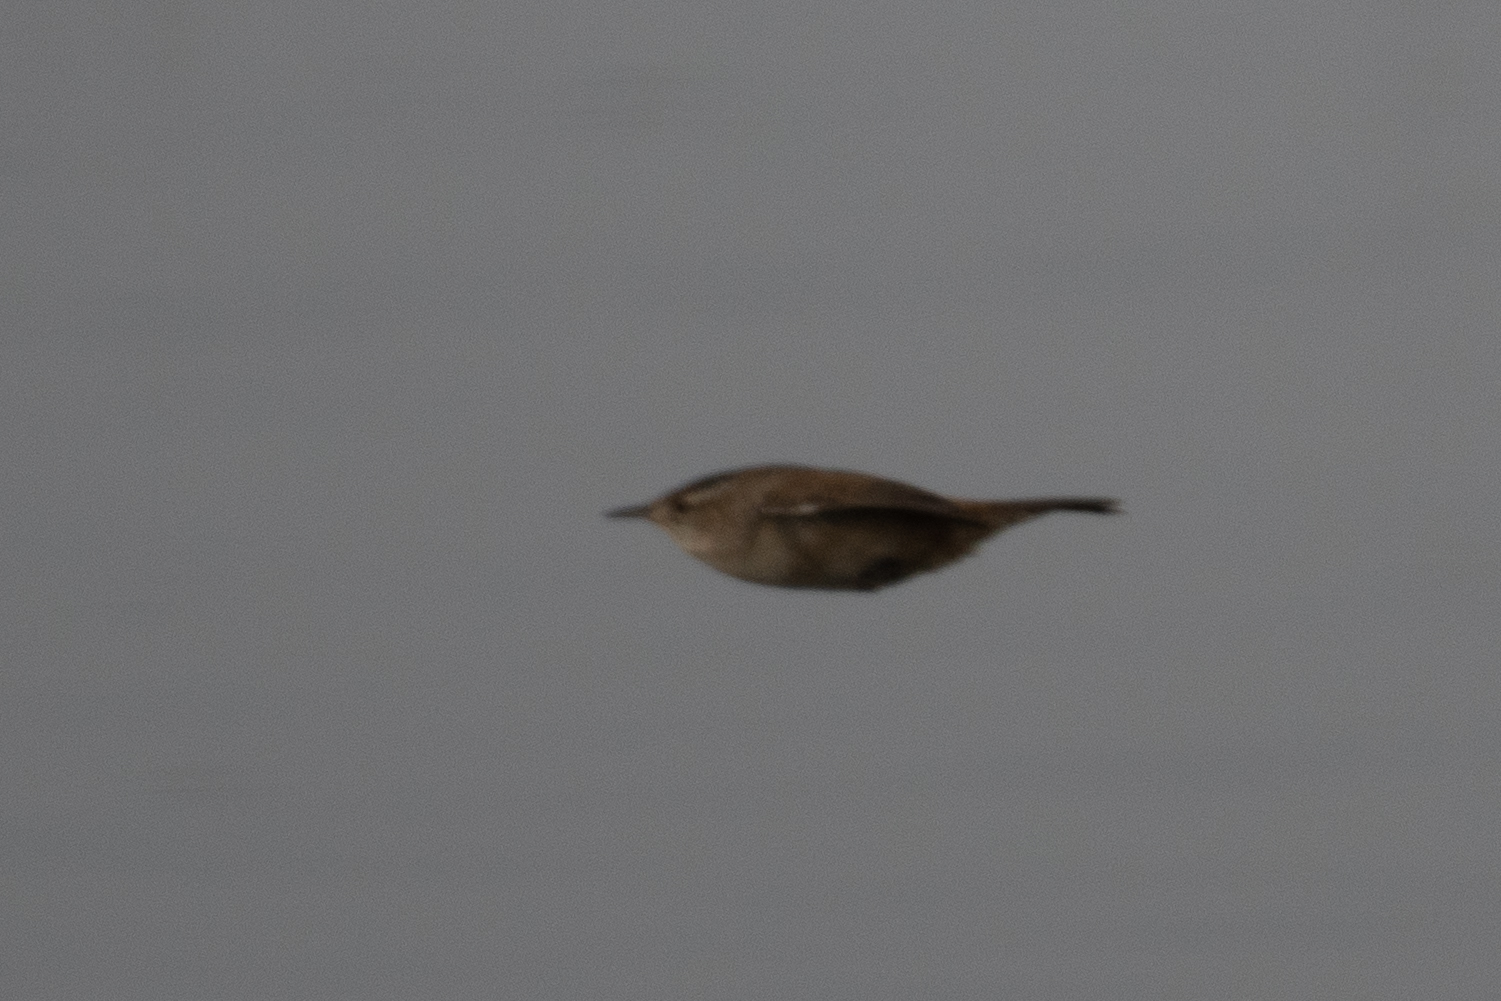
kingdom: Animalia
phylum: Chordata
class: Aves
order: Passeriformes
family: Troglodytidae
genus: Cistothorus
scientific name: Cistothorus palustris
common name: Marsh wren
